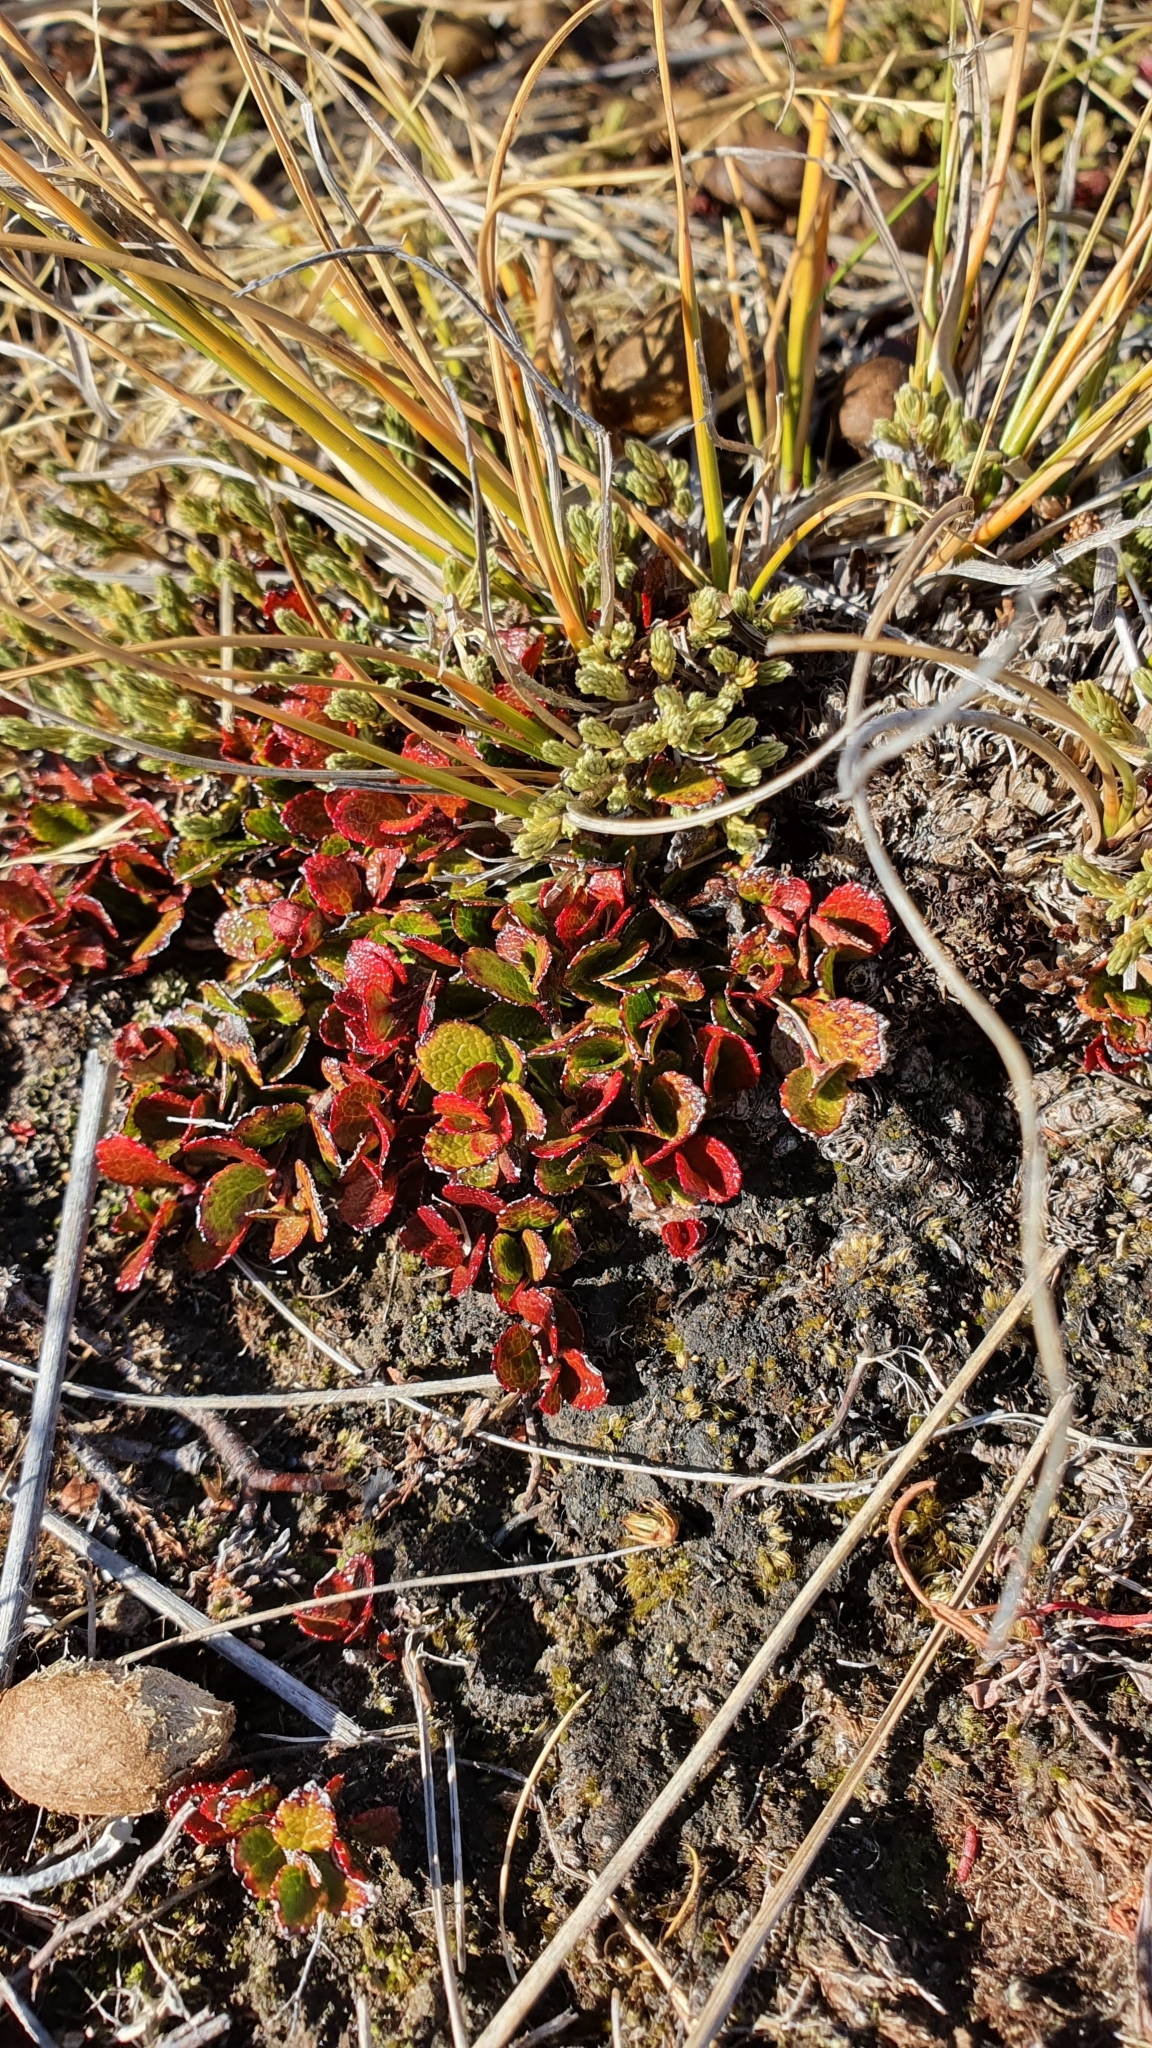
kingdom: Plantae
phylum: Tracheophyta
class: Magnoliopsida
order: Ericales
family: Ericaceae
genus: Gaultheria
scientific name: Gaultheria depressa
